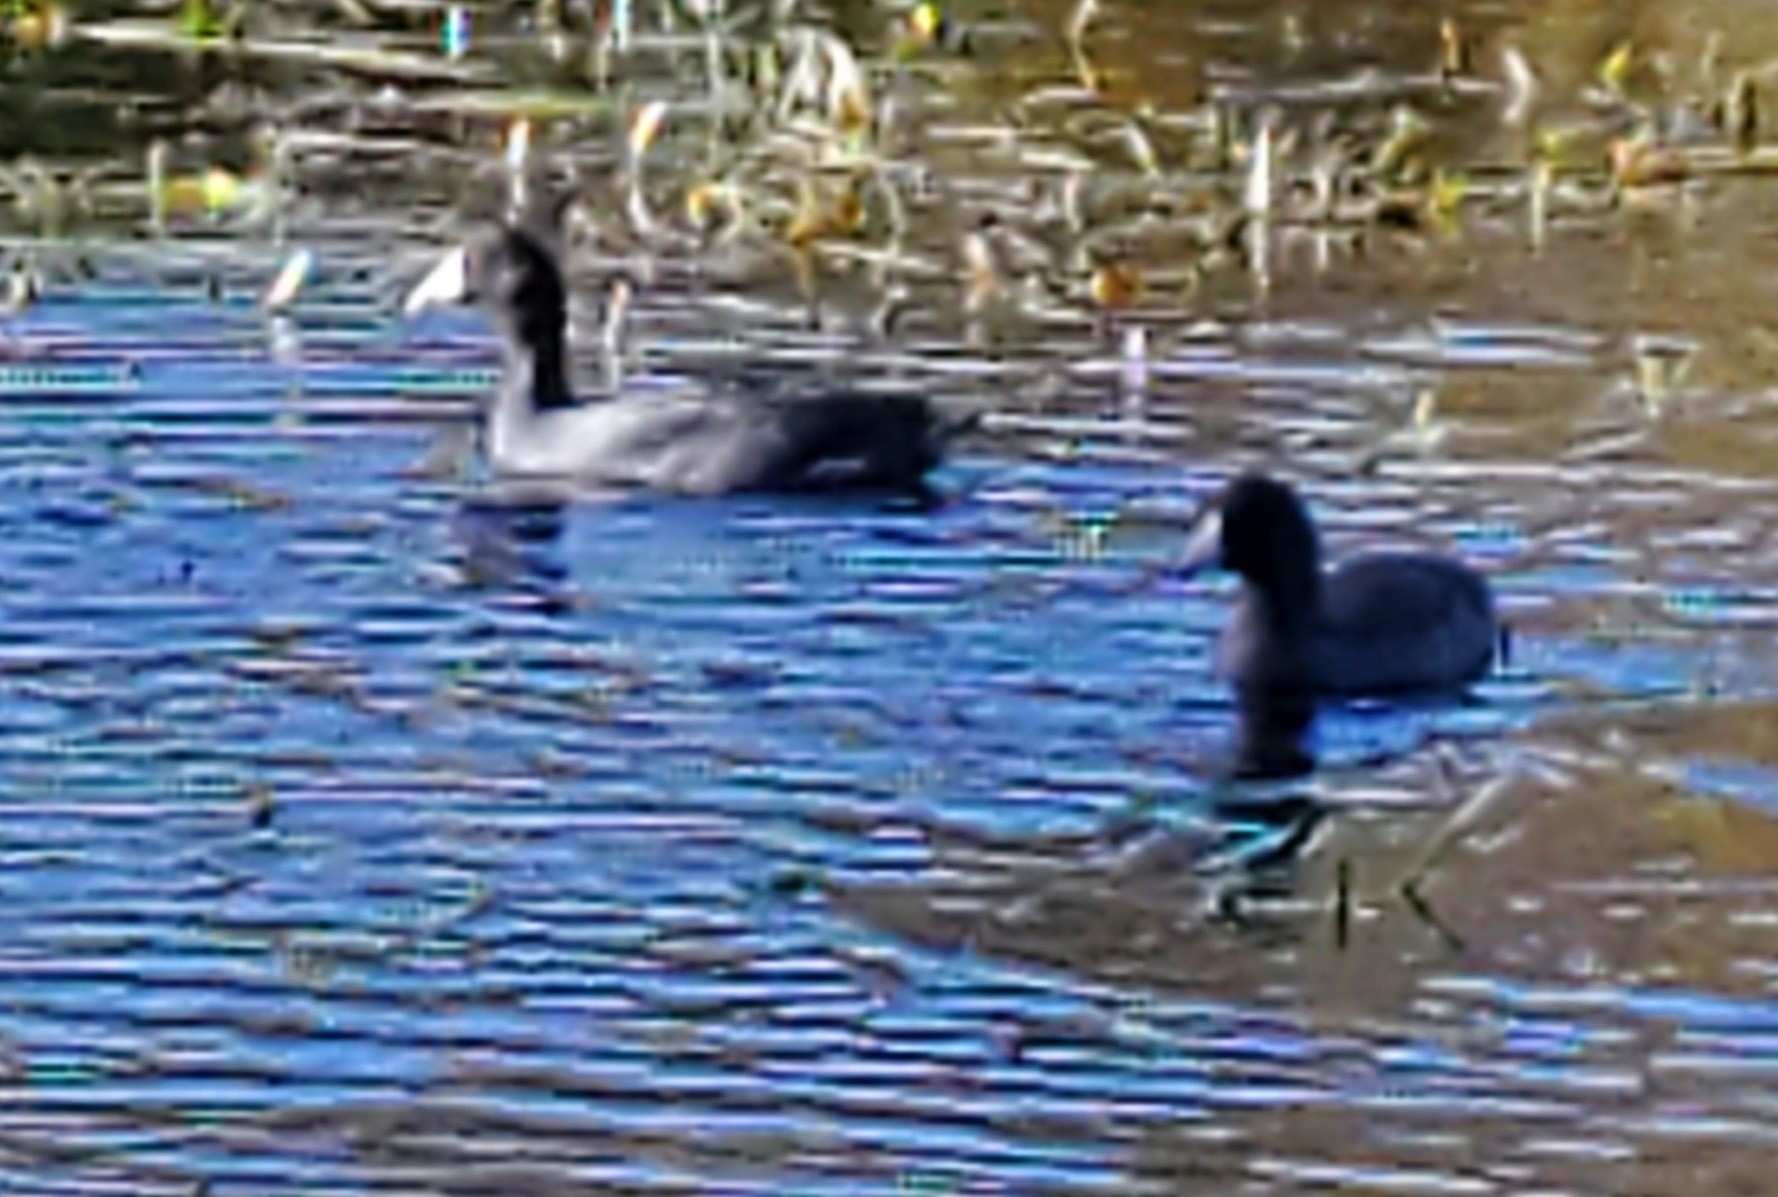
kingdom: Animalia
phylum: Chordata
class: Aves
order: Gruiformes
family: Rallidae
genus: Fulica
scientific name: Fulica americana
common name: American coot
